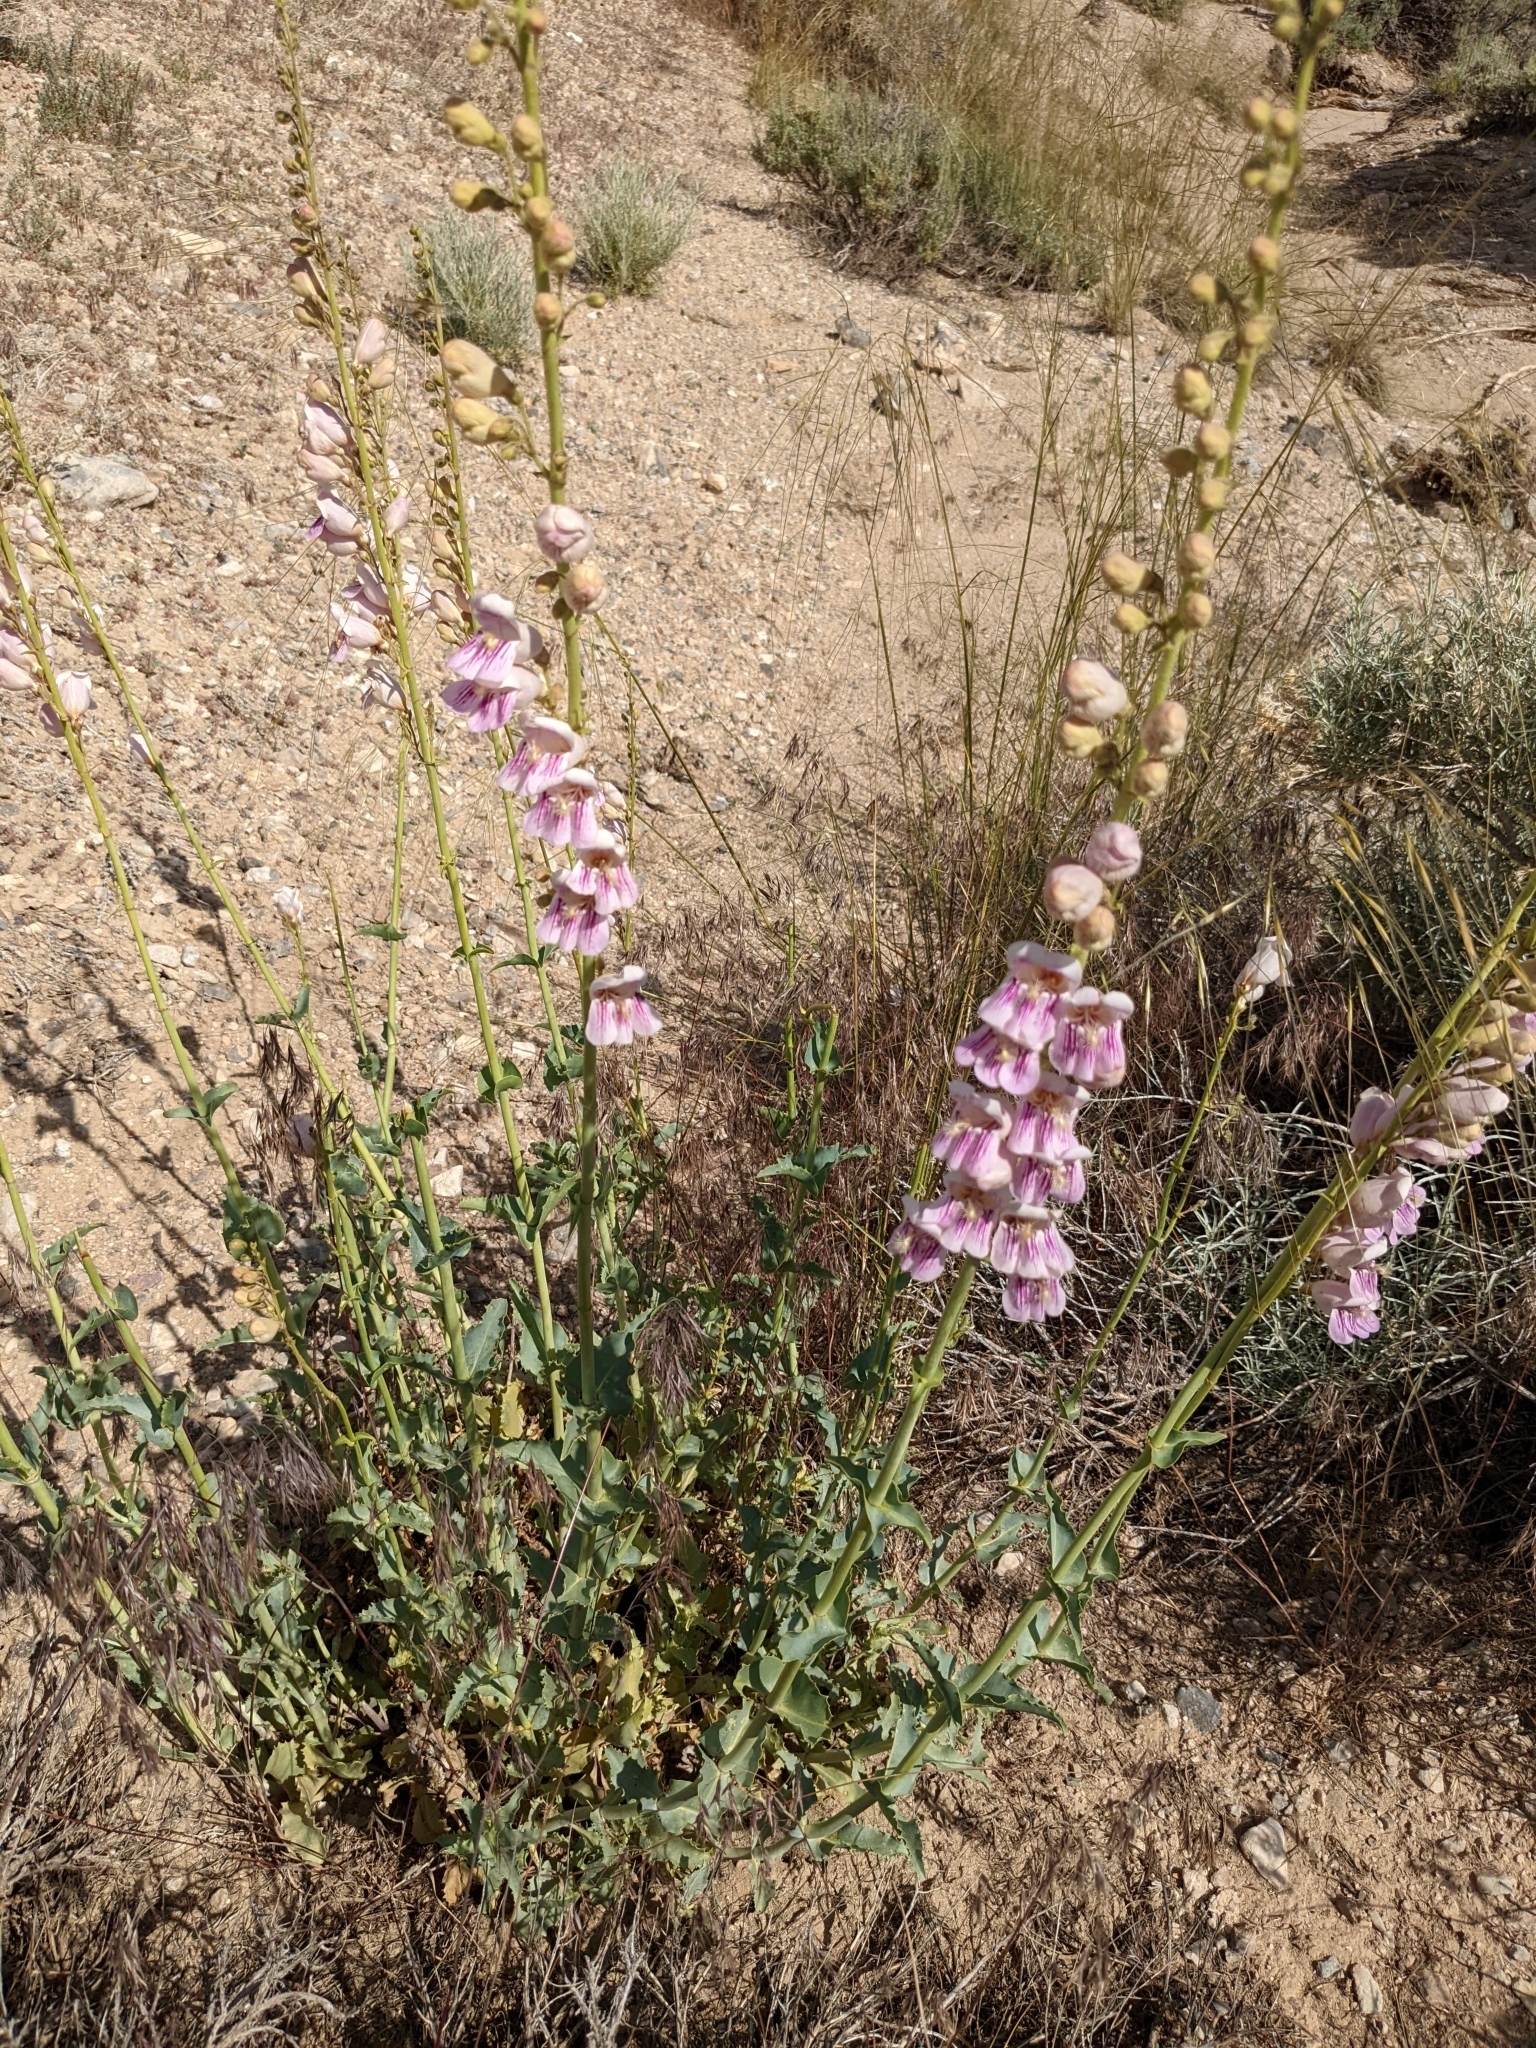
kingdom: Plantae
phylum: Tracheophyta
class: Magnoliopsida
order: Lamiales
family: Plantaginaceae
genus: Penstemon
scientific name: Penstemon palmeri
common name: Palmer penstemon
